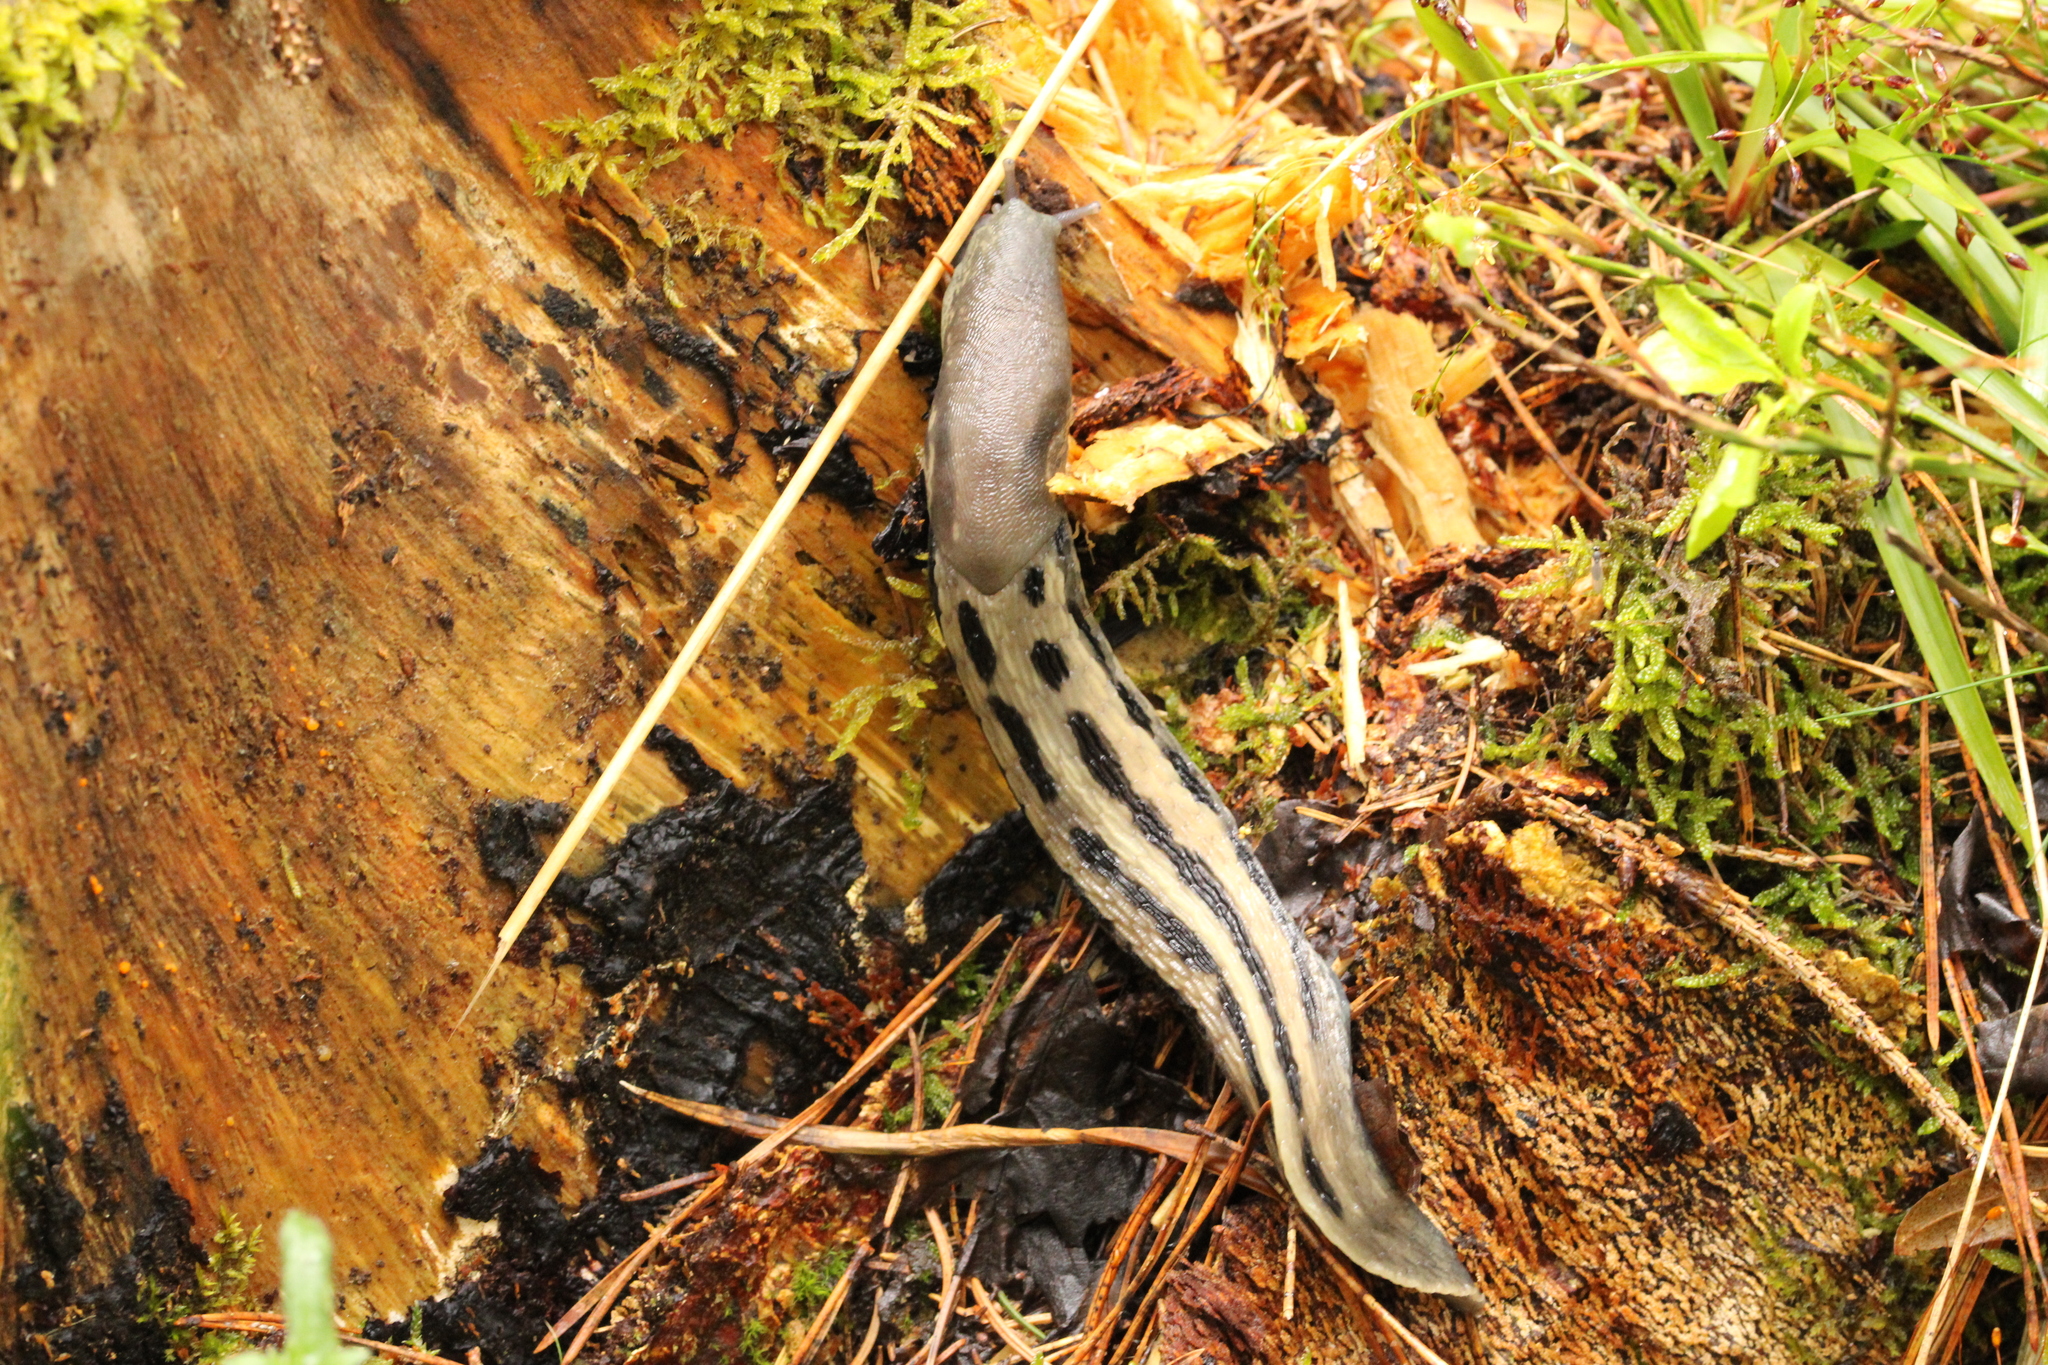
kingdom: Animalia
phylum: Mollusca
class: Gastropoda
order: Stylommatophora
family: Limacidae
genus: Limax
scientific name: Limax cinereoniger
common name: Ash-black slug
